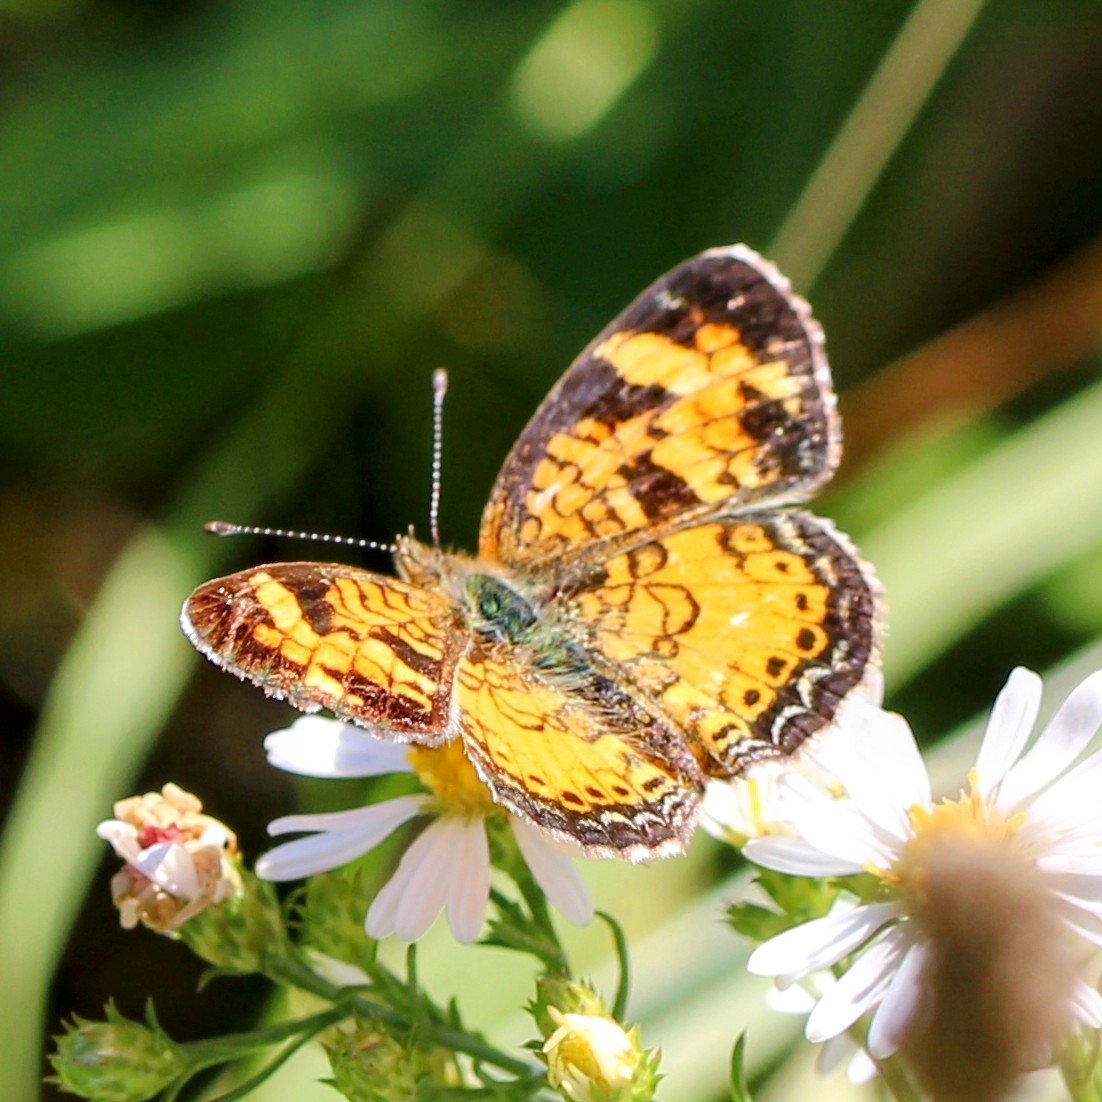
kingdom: Animalia
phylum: Arthropoda
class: Insecta
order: Lepidoptera
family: Nymphalidae
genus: Phyciodes
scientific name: Phyciodes tharos
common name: Pearl crescent
